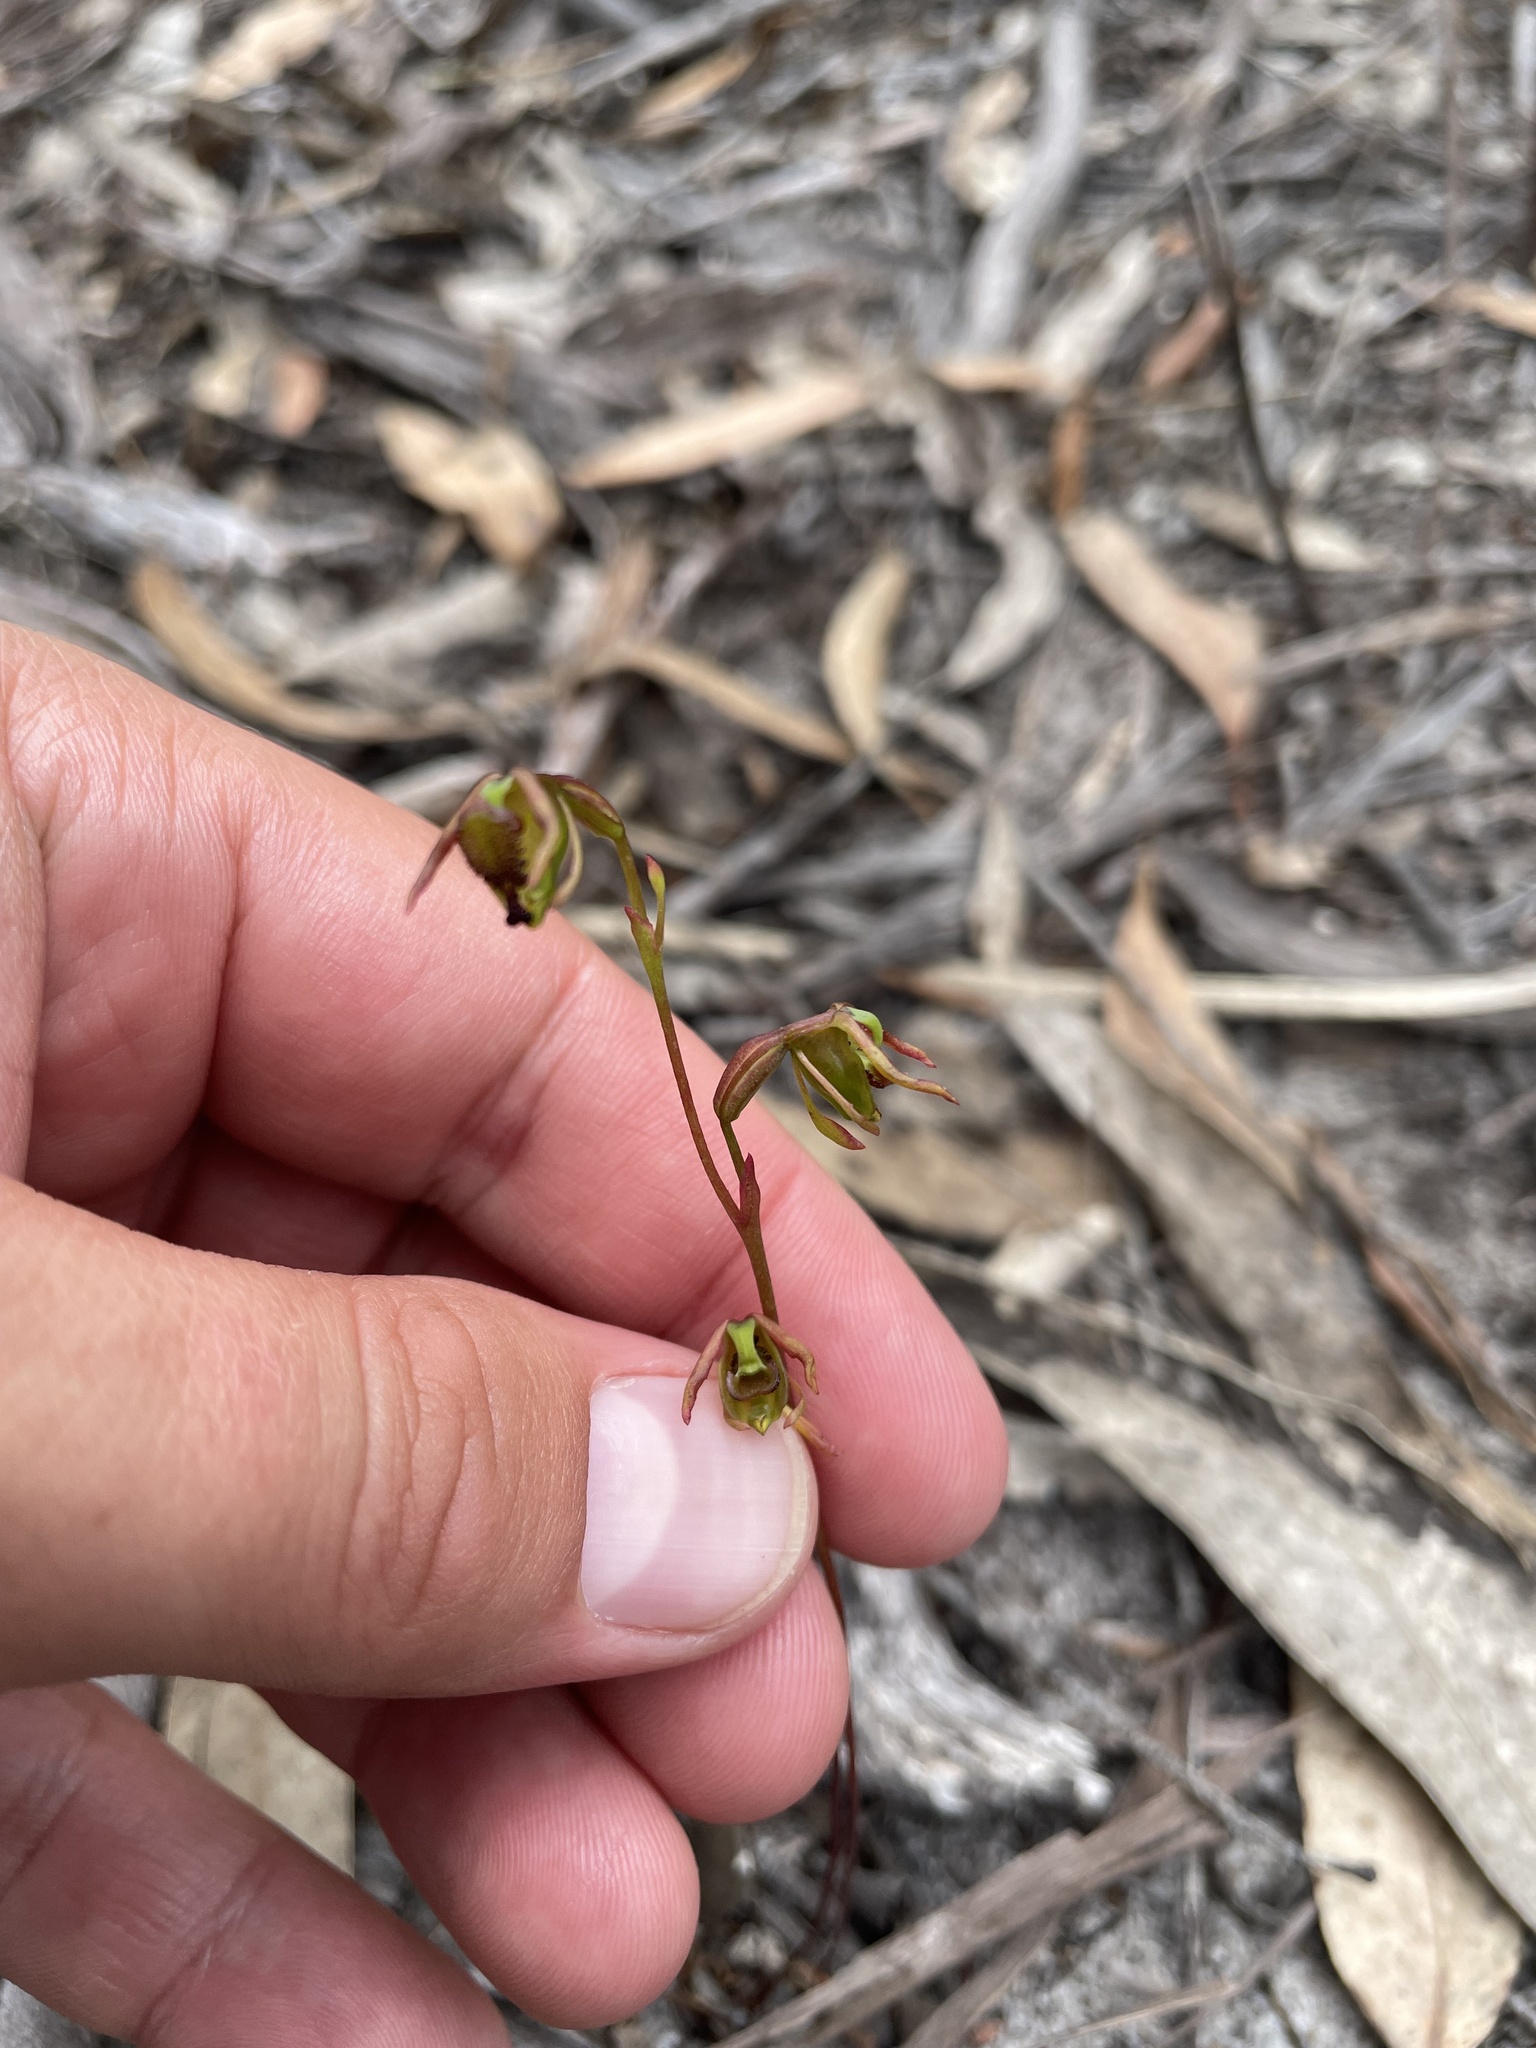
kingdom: Plantae
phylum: Tracheophyta
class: Liliopsida
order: Asparagales
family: Orchidaceae
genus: Caleana
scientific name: Caleana minor
